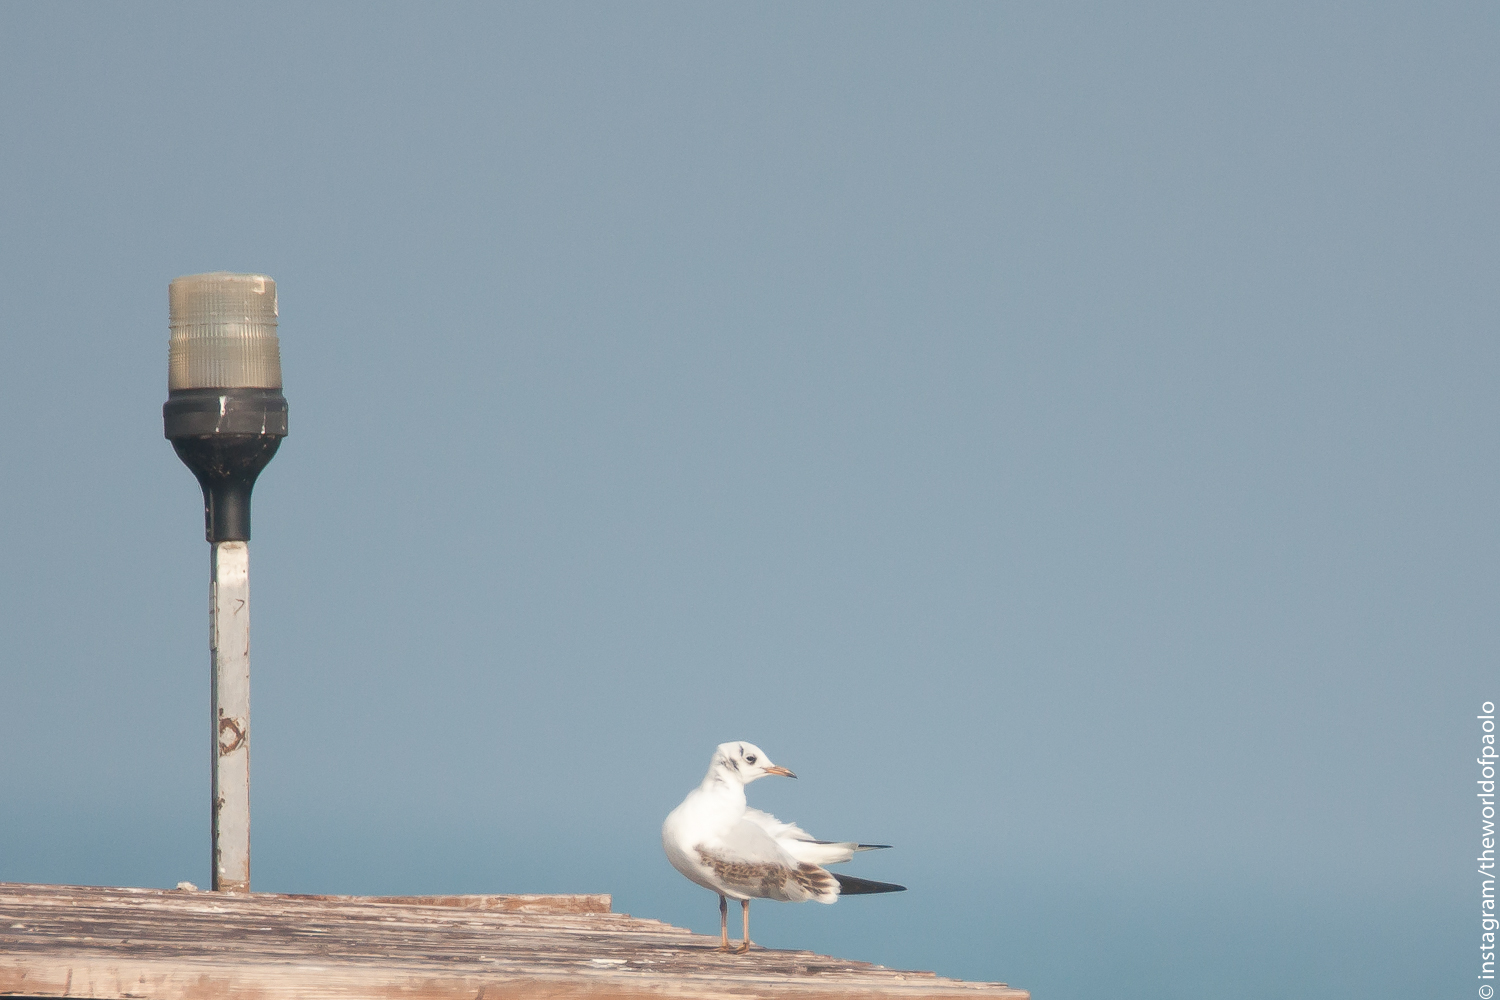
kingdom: Animalia
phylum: Chordata
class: Aves
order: Charadriiformes
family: Laridae
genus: Chroicocephalus
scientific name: Chroicocephalus ridibundus
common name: Black-headed gull
